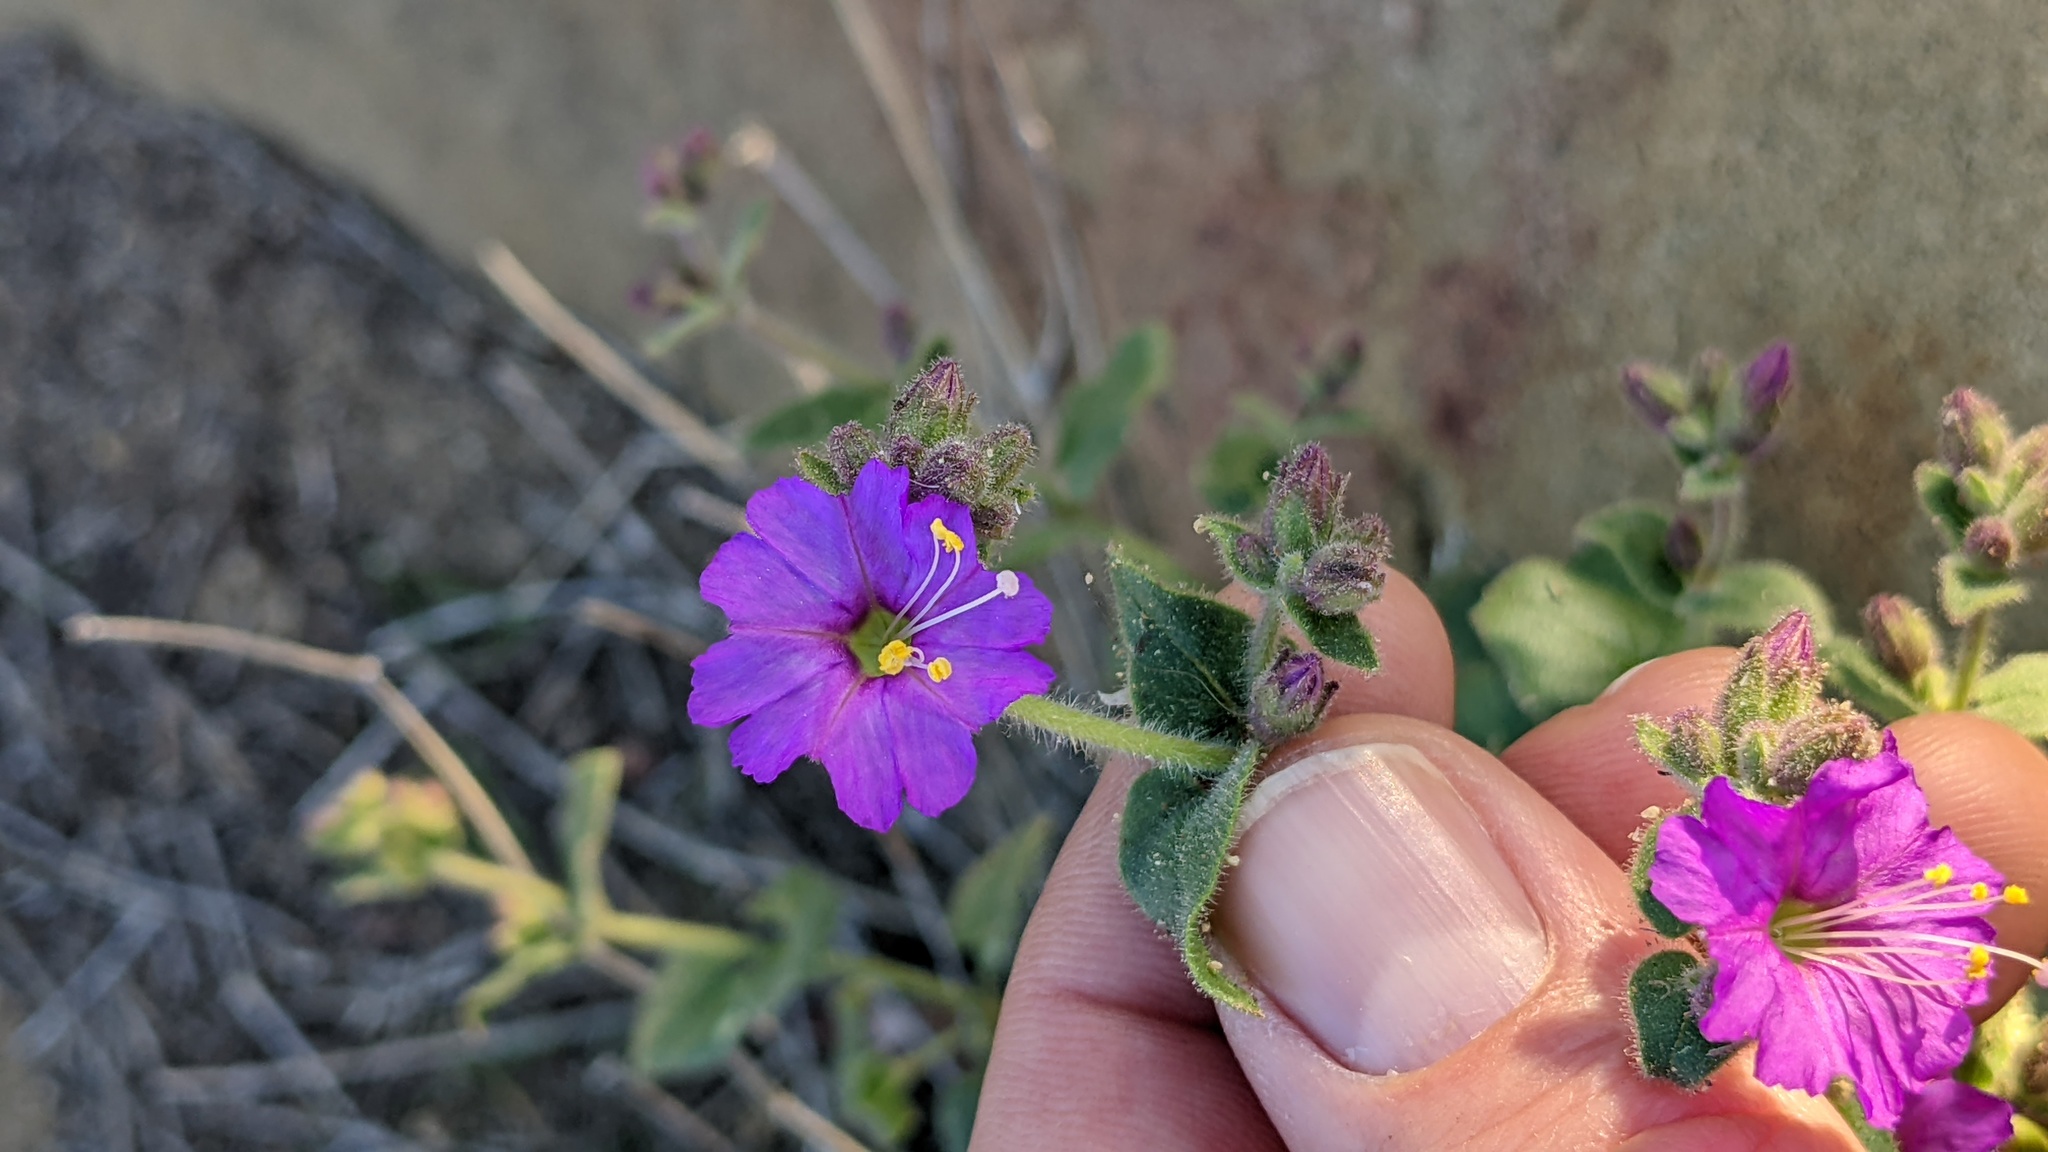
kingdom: Plantae
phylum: Tracheophyta
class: Magnoliopsida
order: Caryophyllales
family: Nyctaginaceae
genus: Mirabilis
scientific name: Mirabilis laevis
